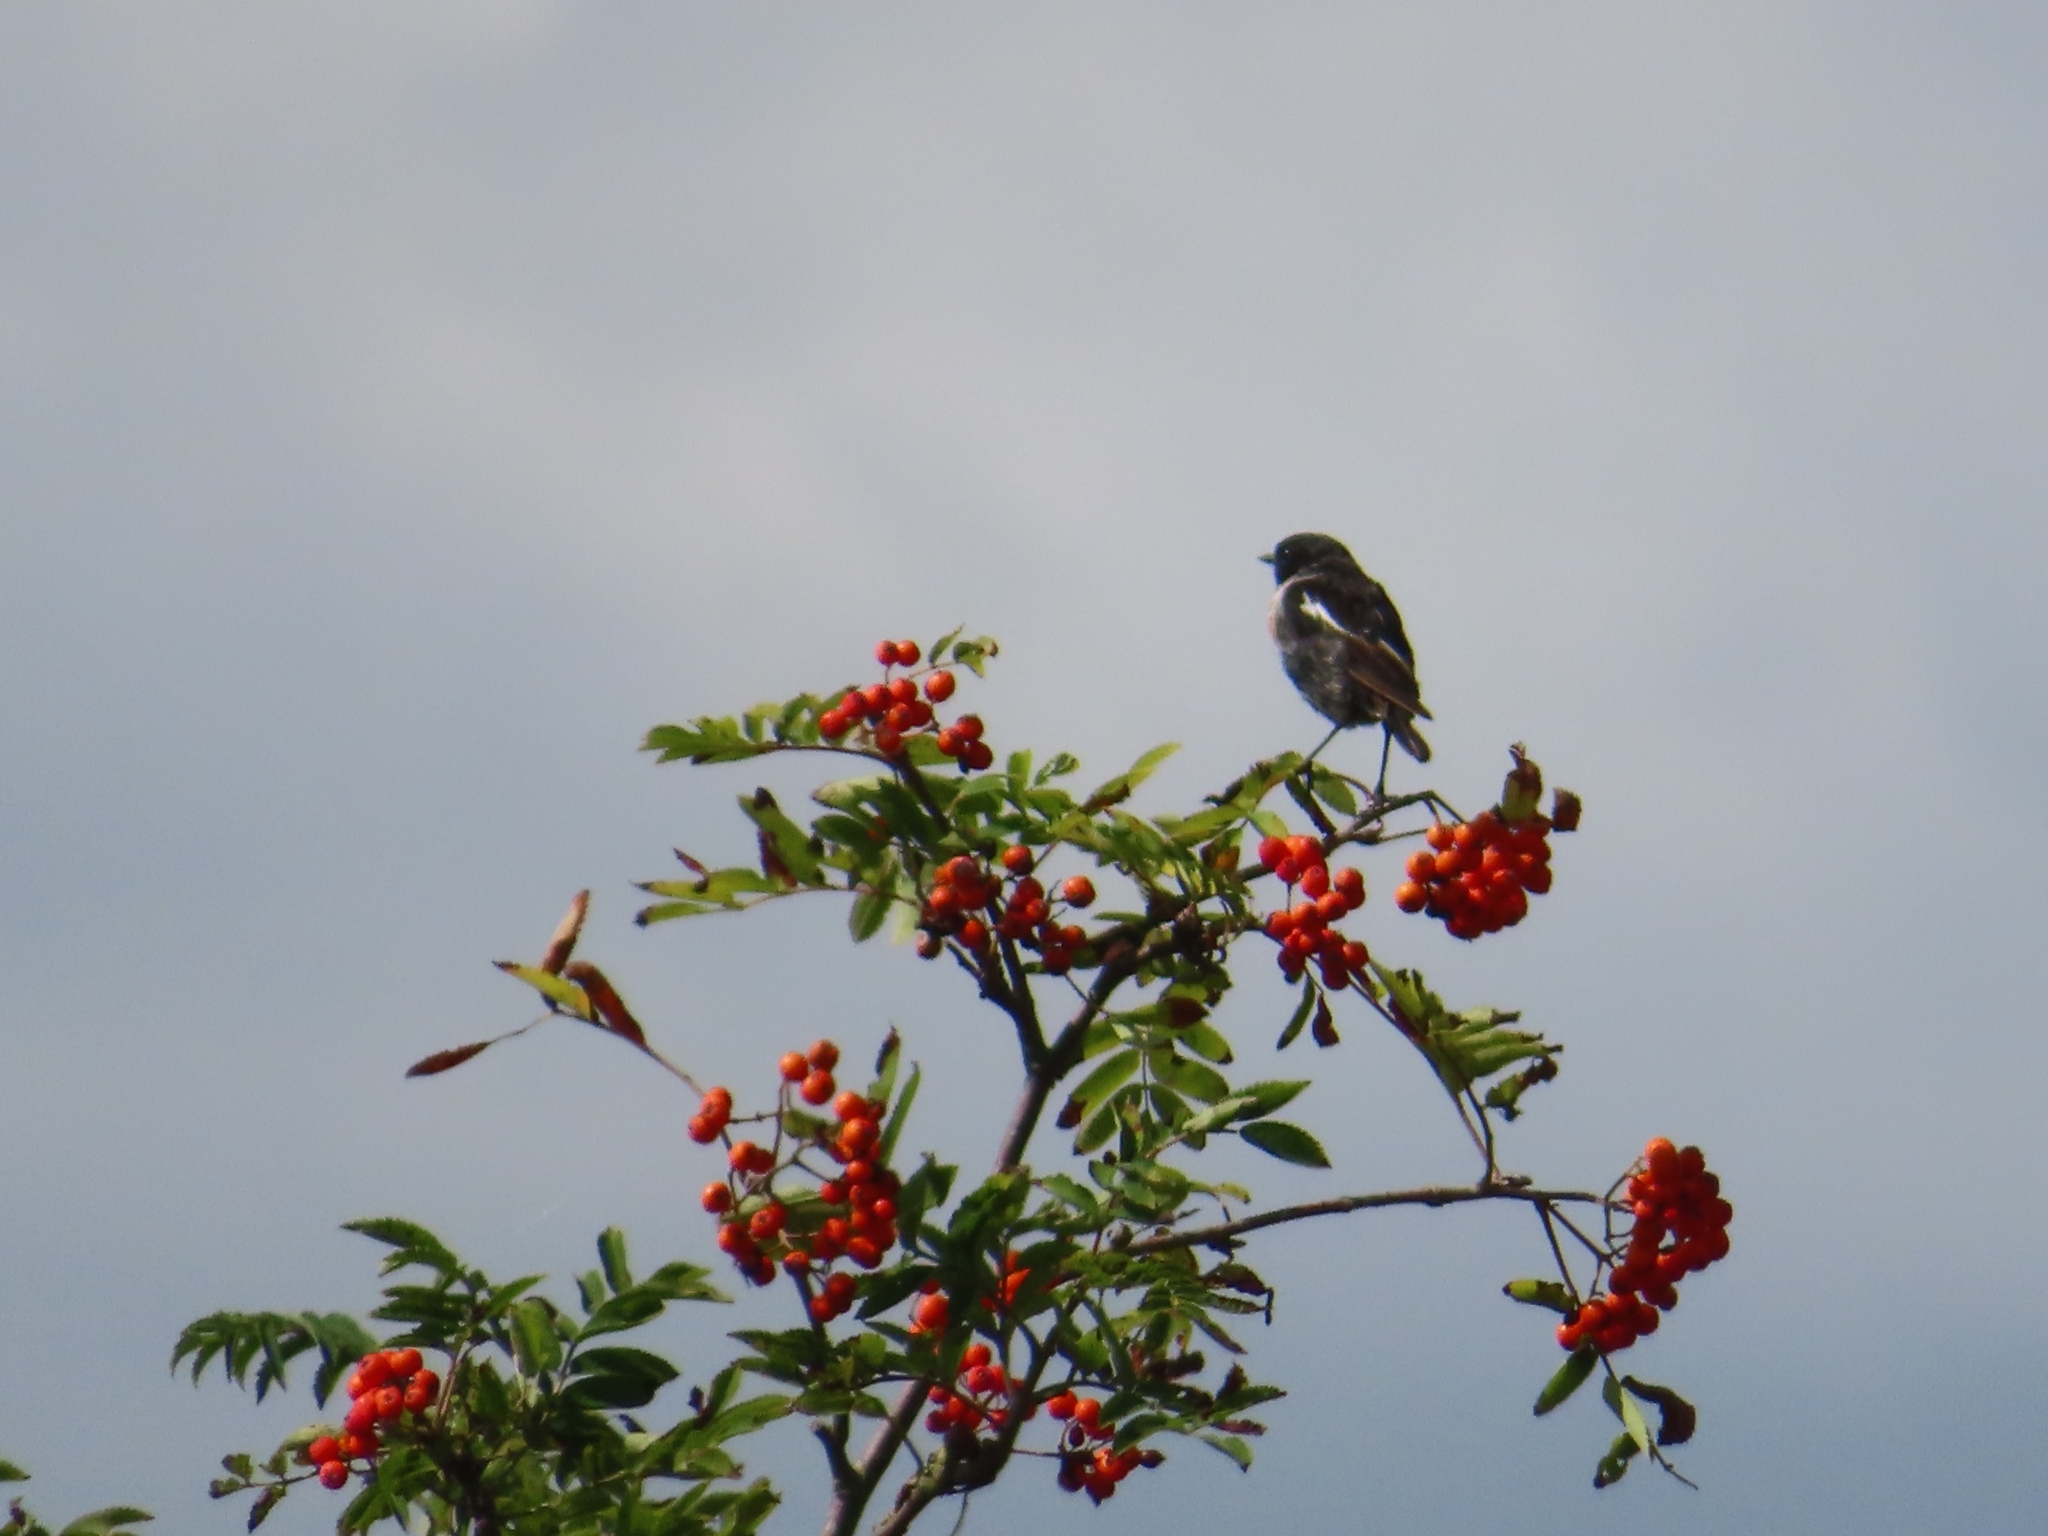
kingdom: Animalia
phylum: Chordata
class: Aves
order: Passeriformes
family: Muscicapidae
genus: Saxicola
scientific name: Saxicola rubicola
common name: European stonechat
